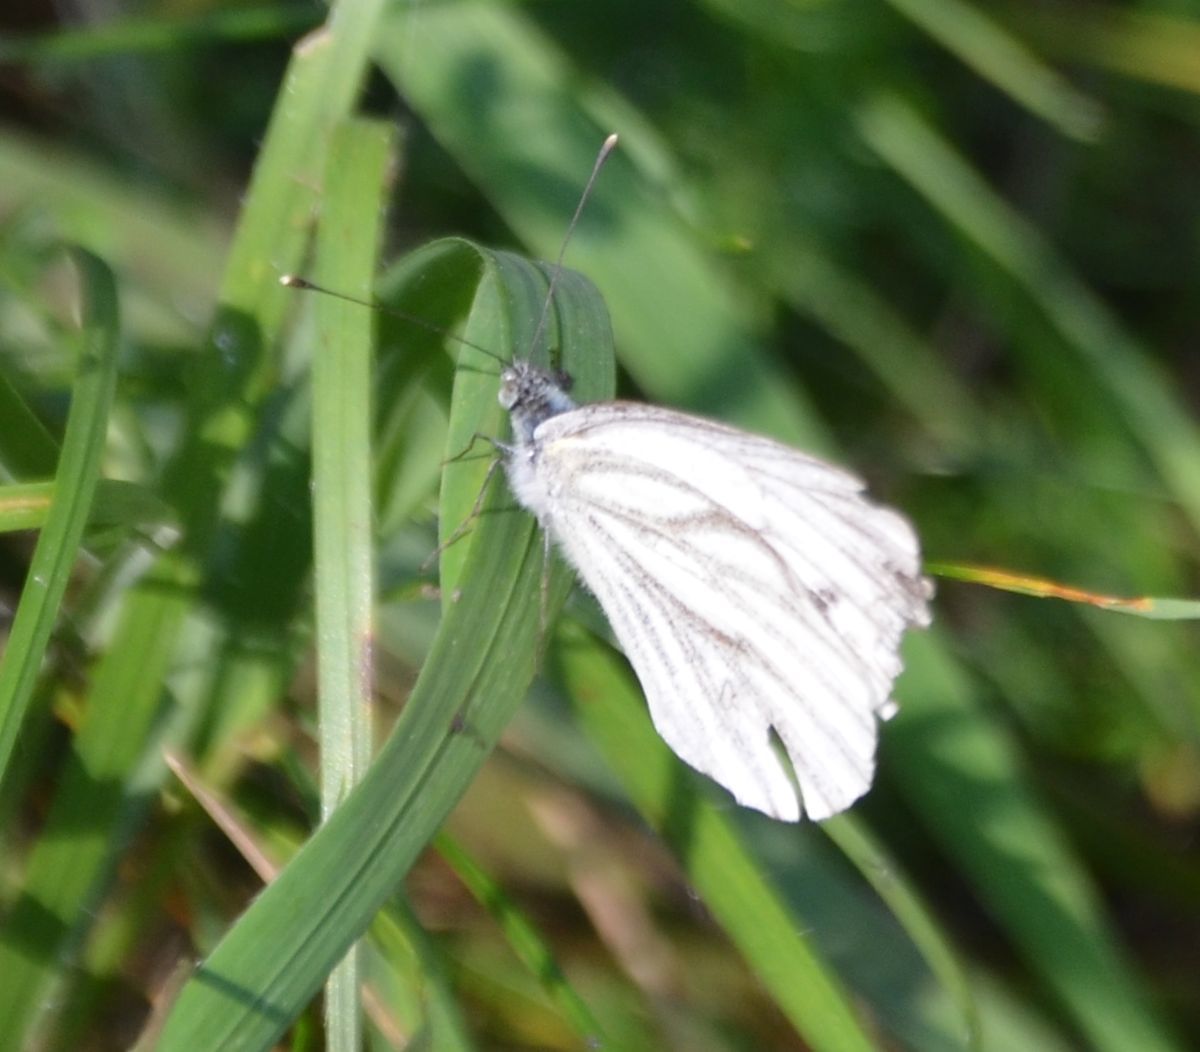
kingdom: Animalia
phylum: Arthropoda
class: Insecta
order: Lepidoptera
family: Pieridae
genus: Pieris
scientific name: Pieris napi
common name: Green-veined white
